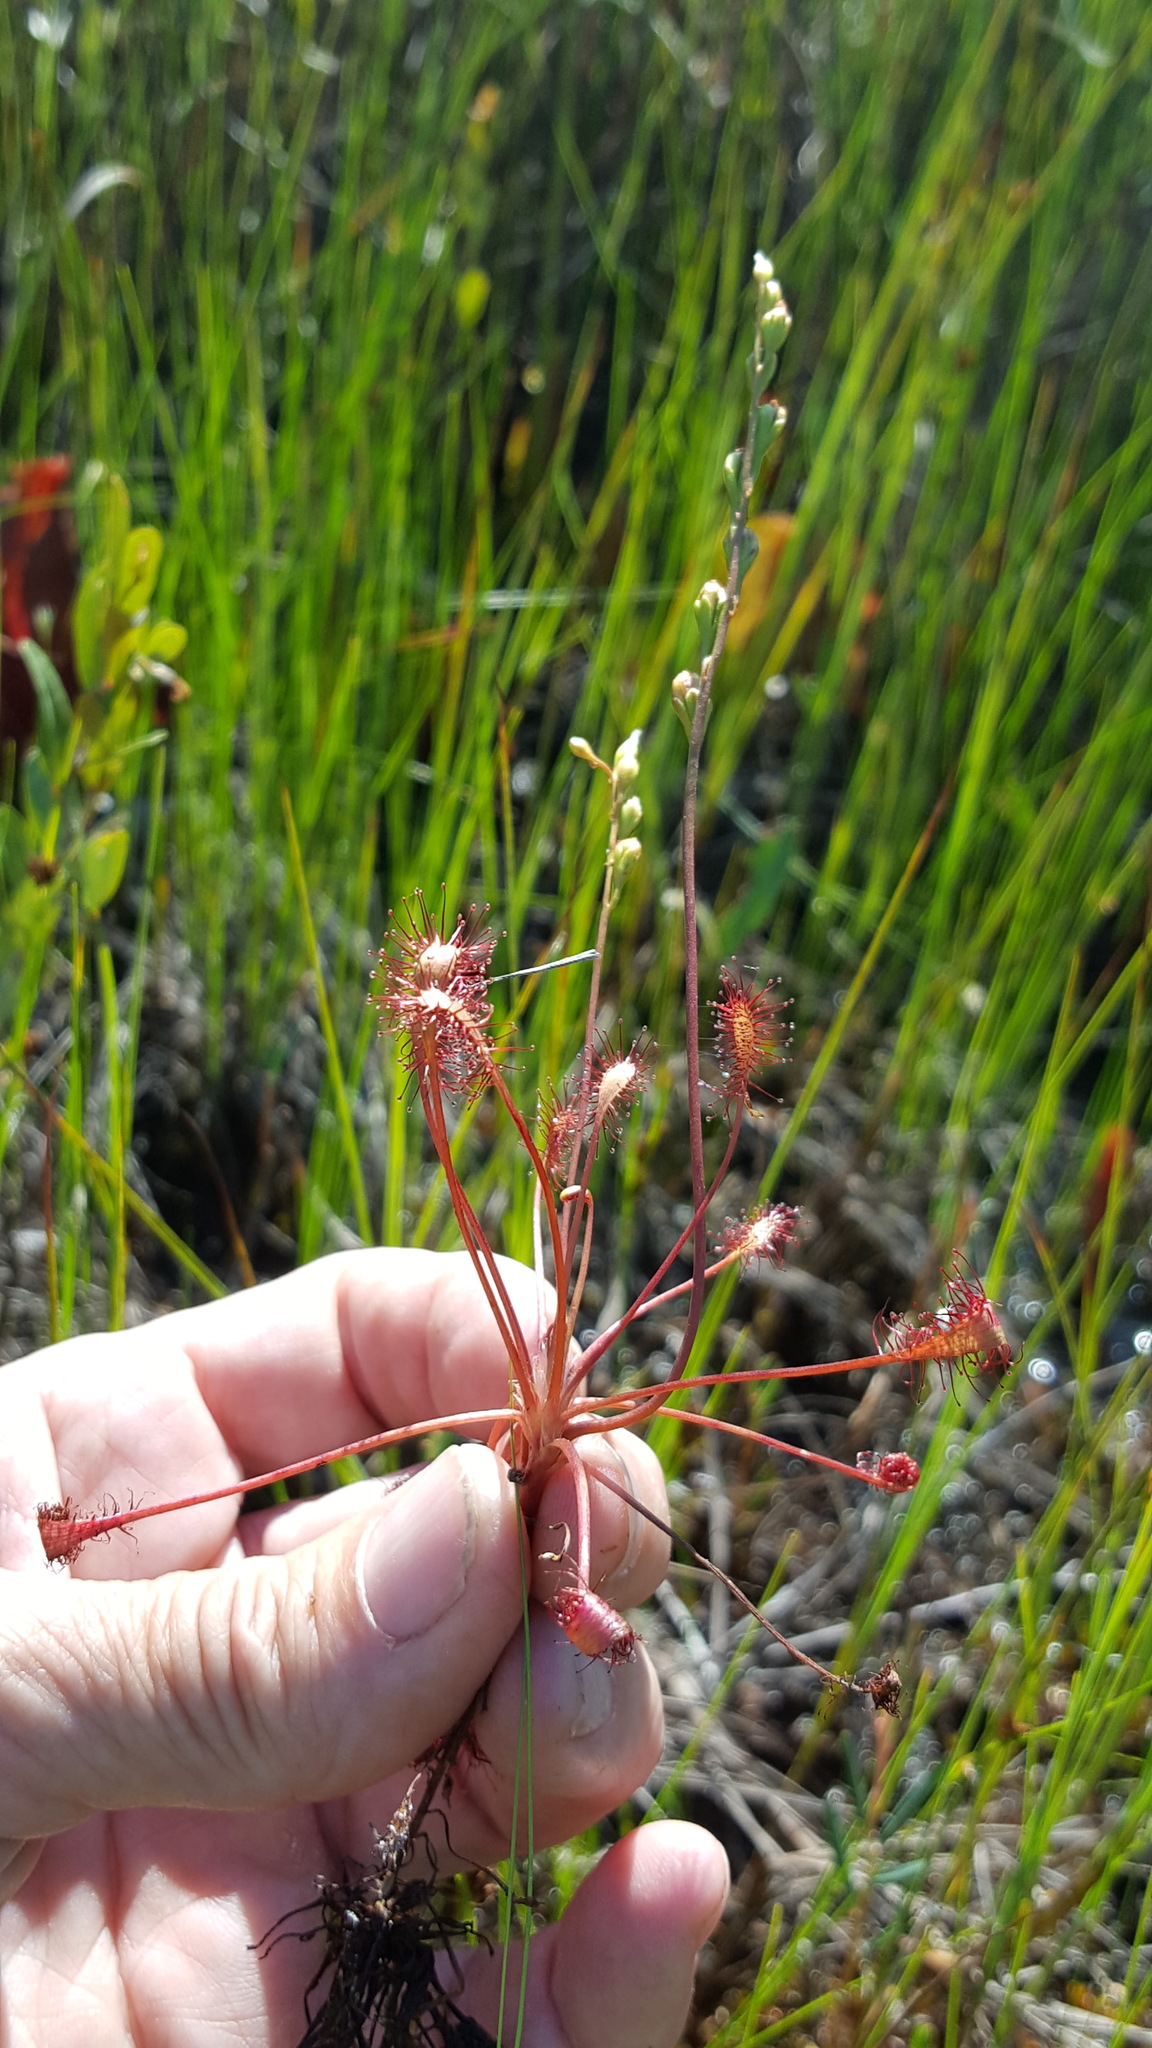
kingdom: Plantae
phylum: Tracheophyta
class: Magnoliopsida
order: Caryophyllales
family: Droseraceae
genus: Drosera
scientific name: Drosera intermedia
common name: Oblong-leaved sundew
